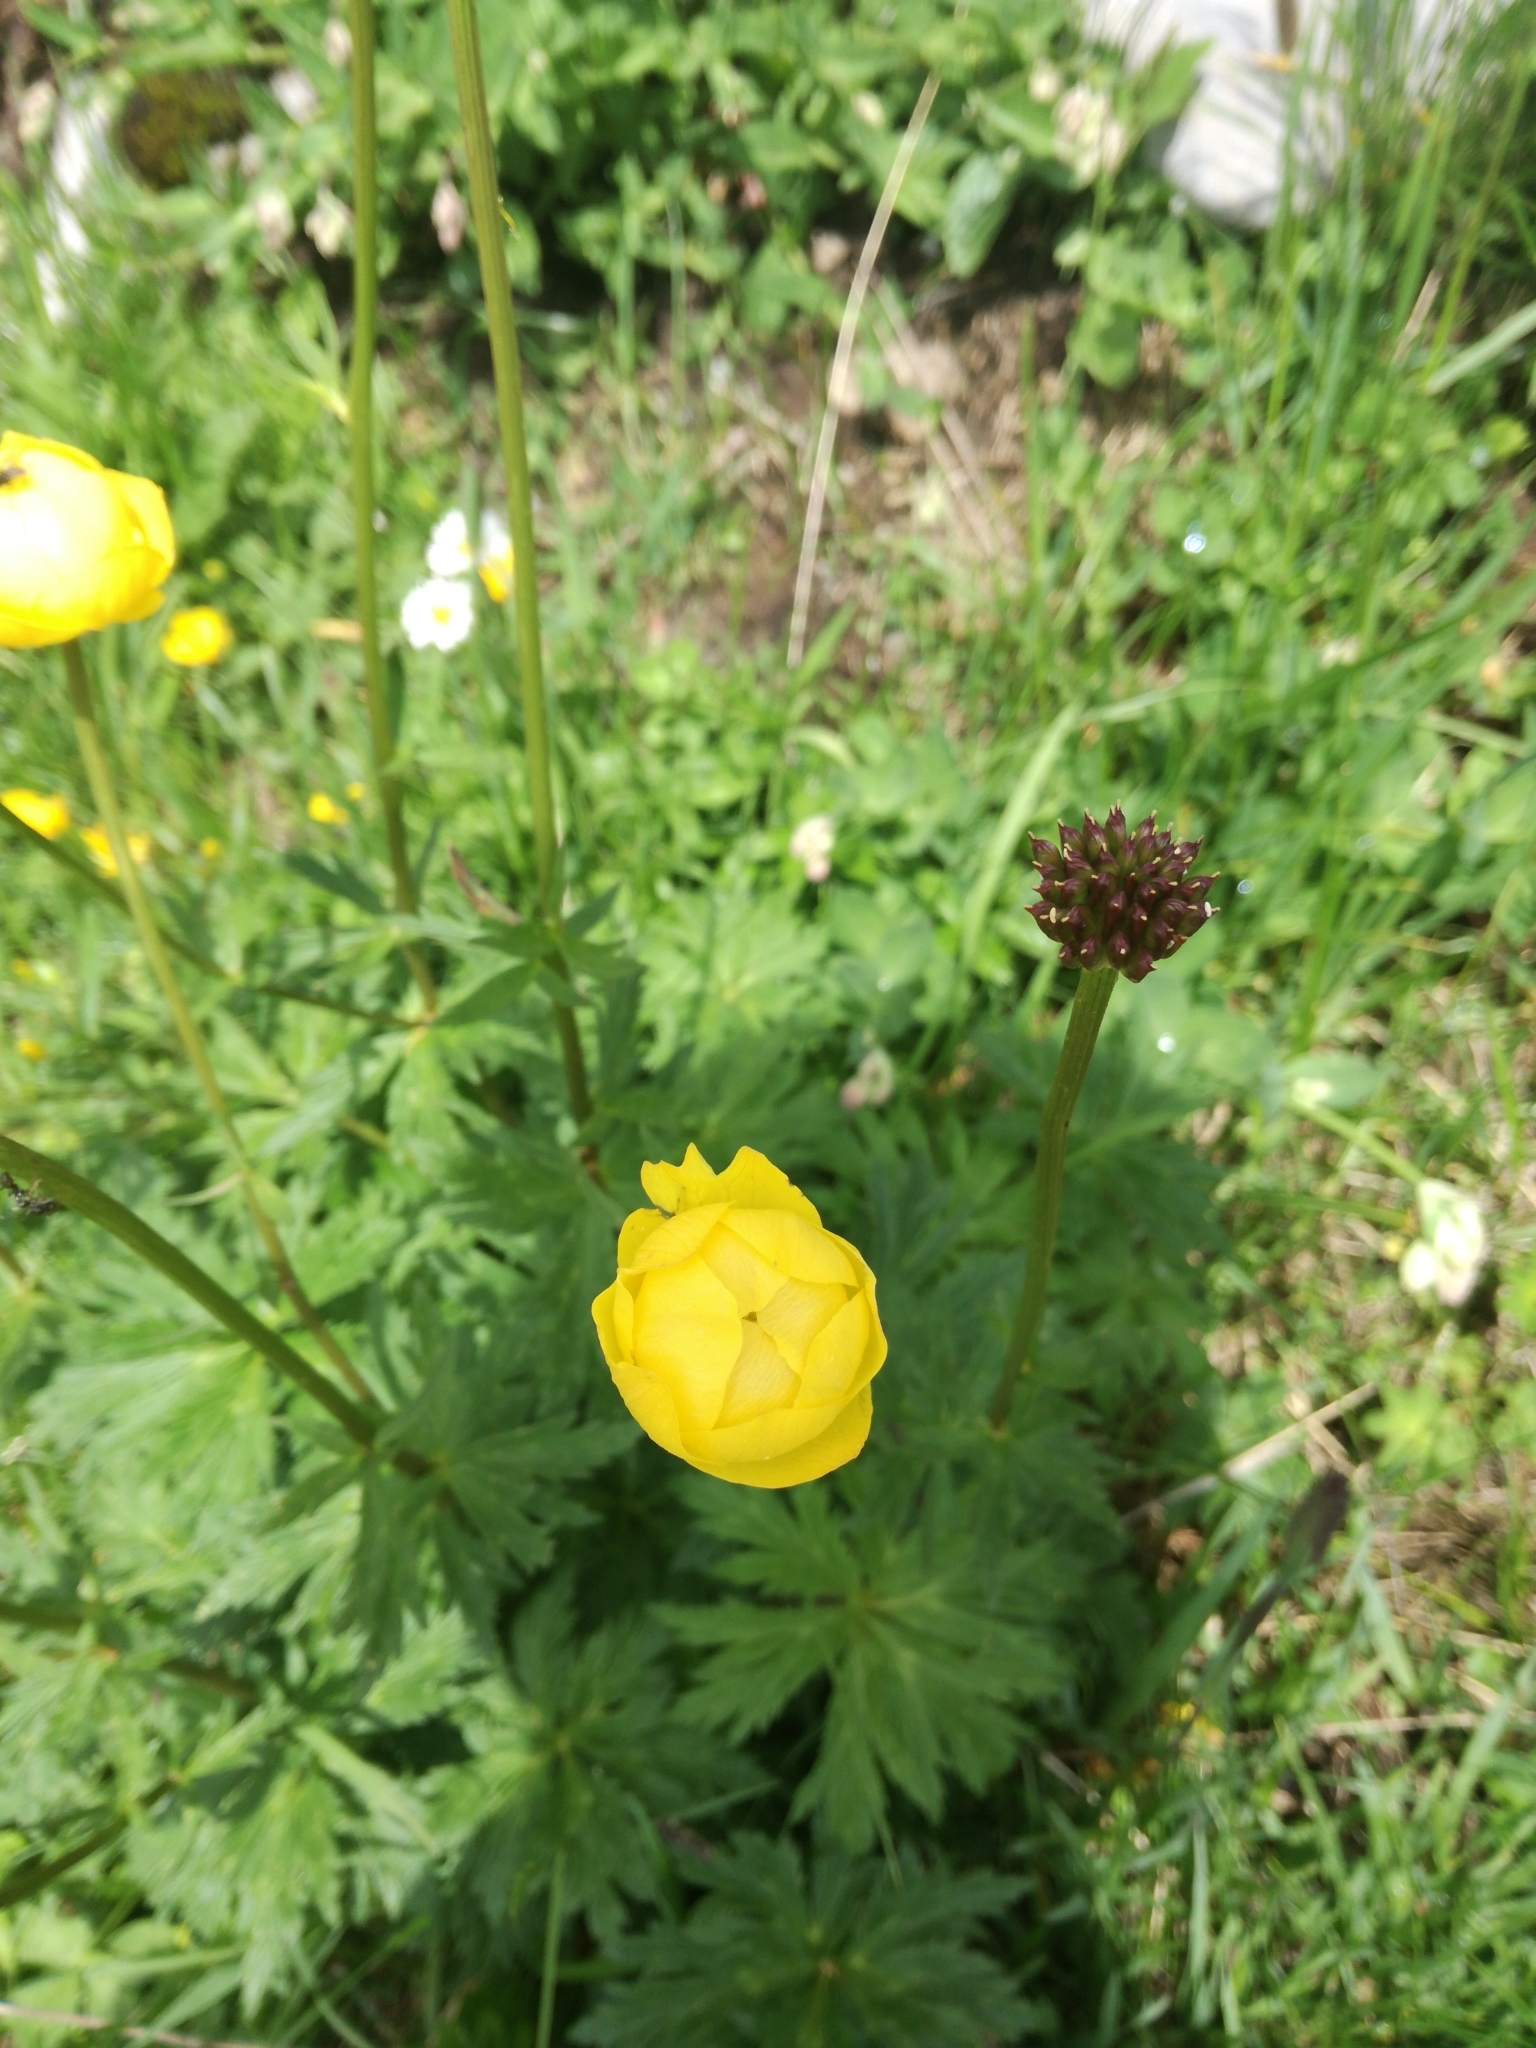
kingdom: Plantae
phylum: Tracheophyta
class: Magnoliopsida
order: Ranunculales
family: Ranunculaceae
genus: Trollius
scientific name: Trollius europaeus
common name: European globeflower
